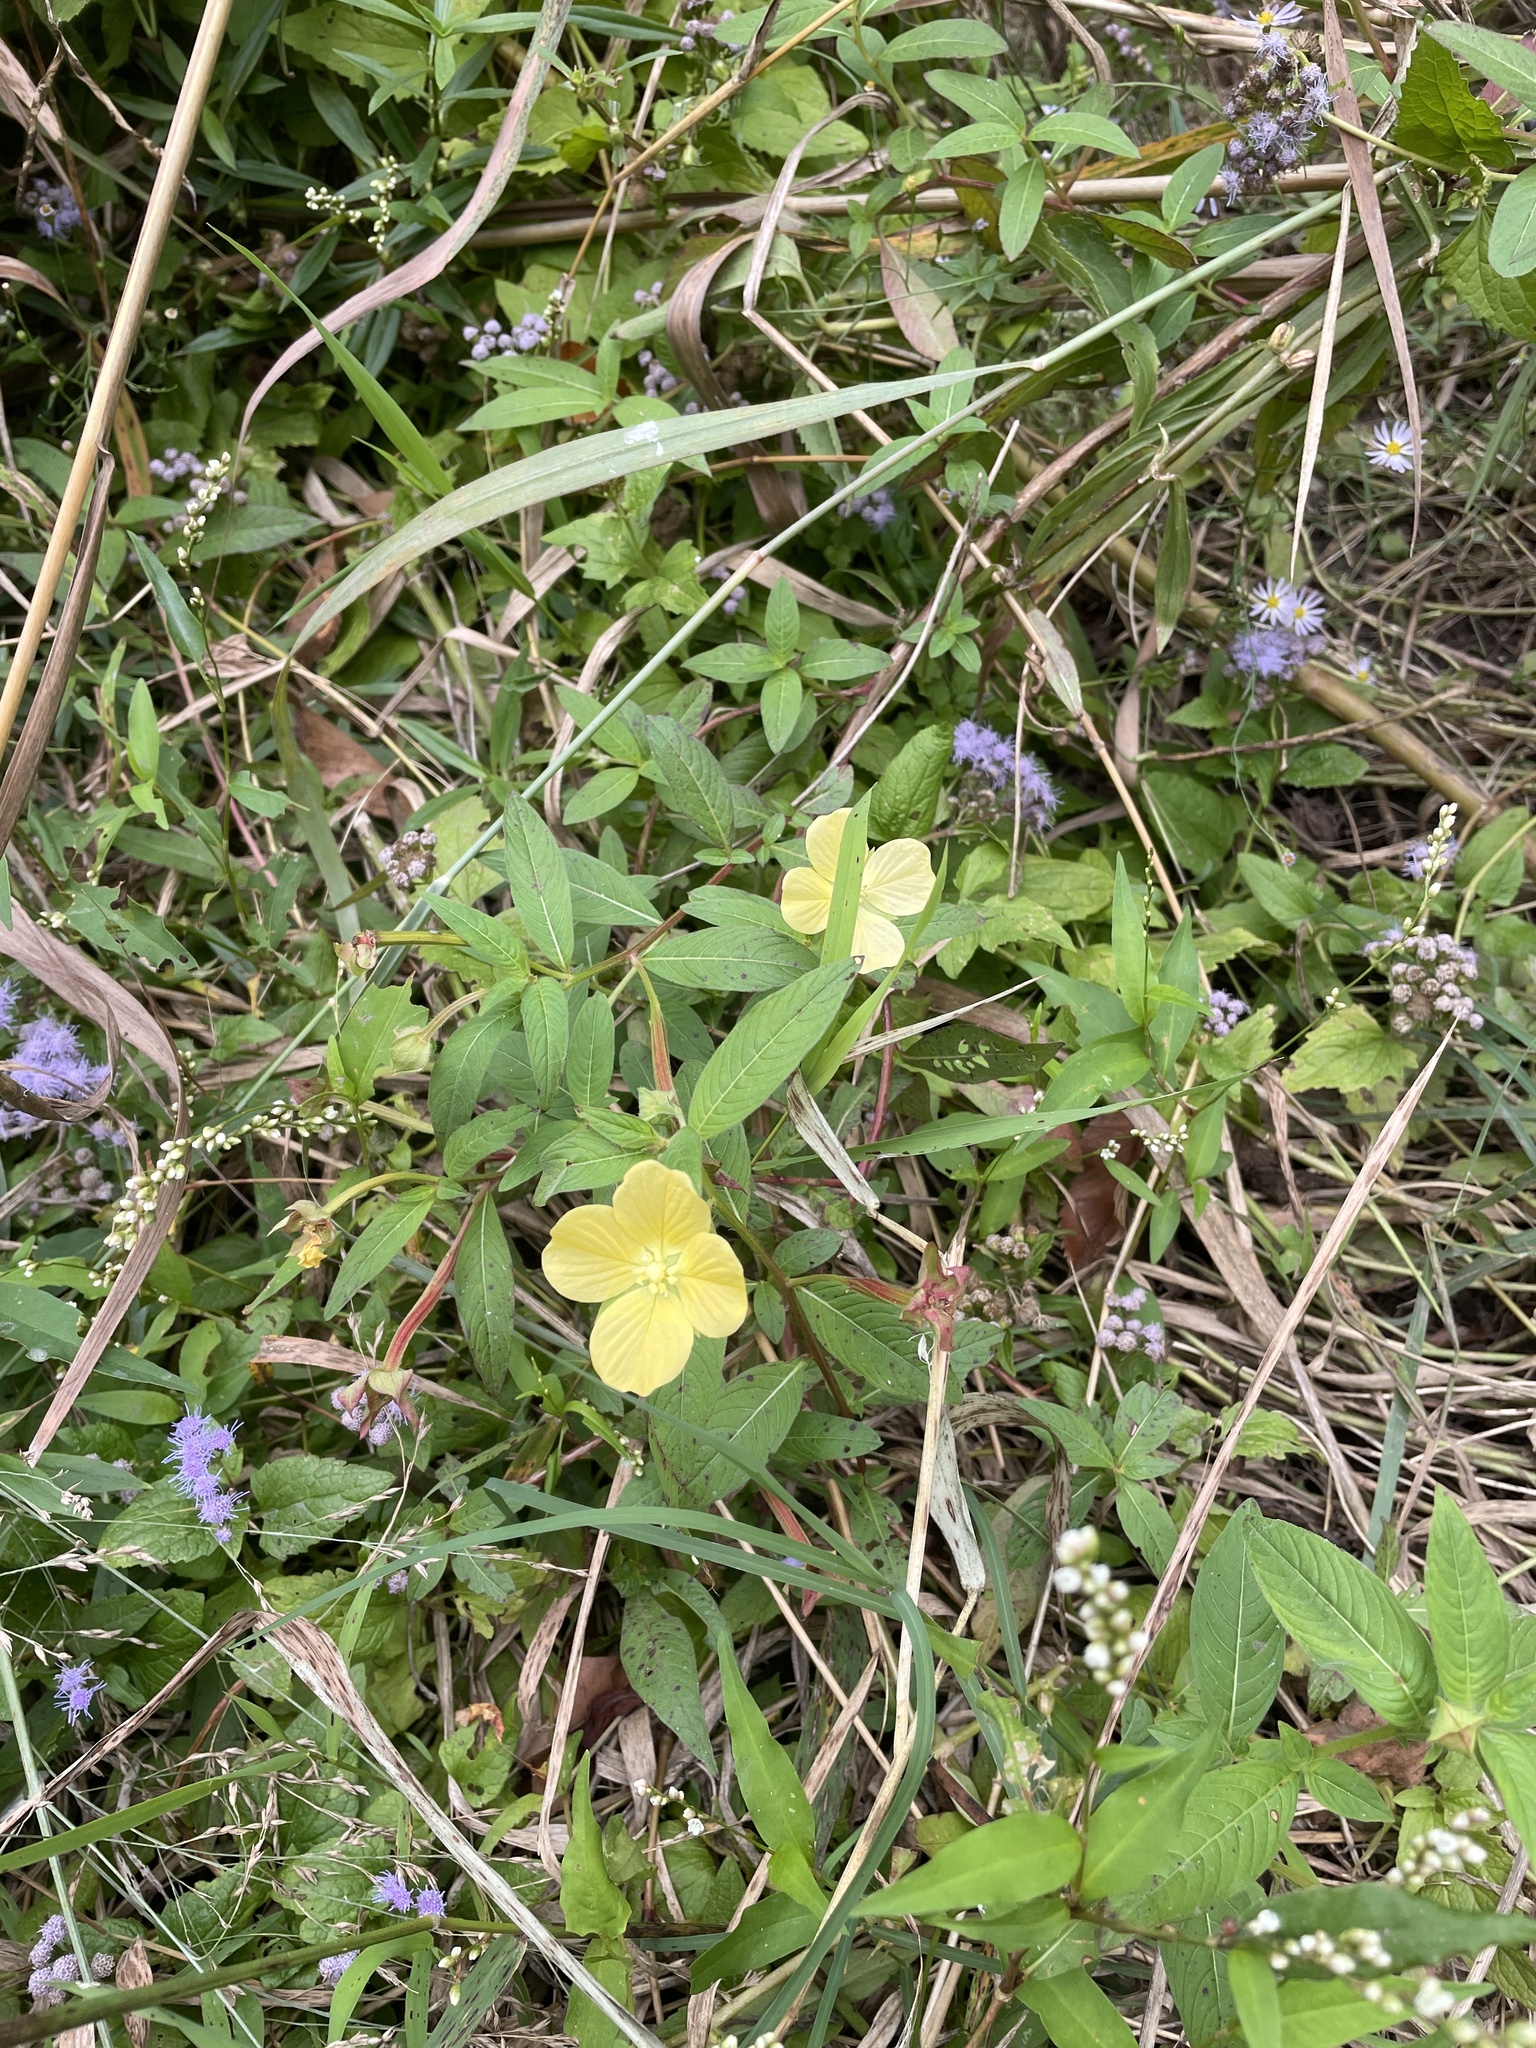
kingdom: Plantae
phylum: Tracheophyta
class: Magnoliopsida
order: Myrtales
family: Onagraceae
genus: Ludwigia
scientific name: Ludwigia octovalvis
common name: Water-primrose
